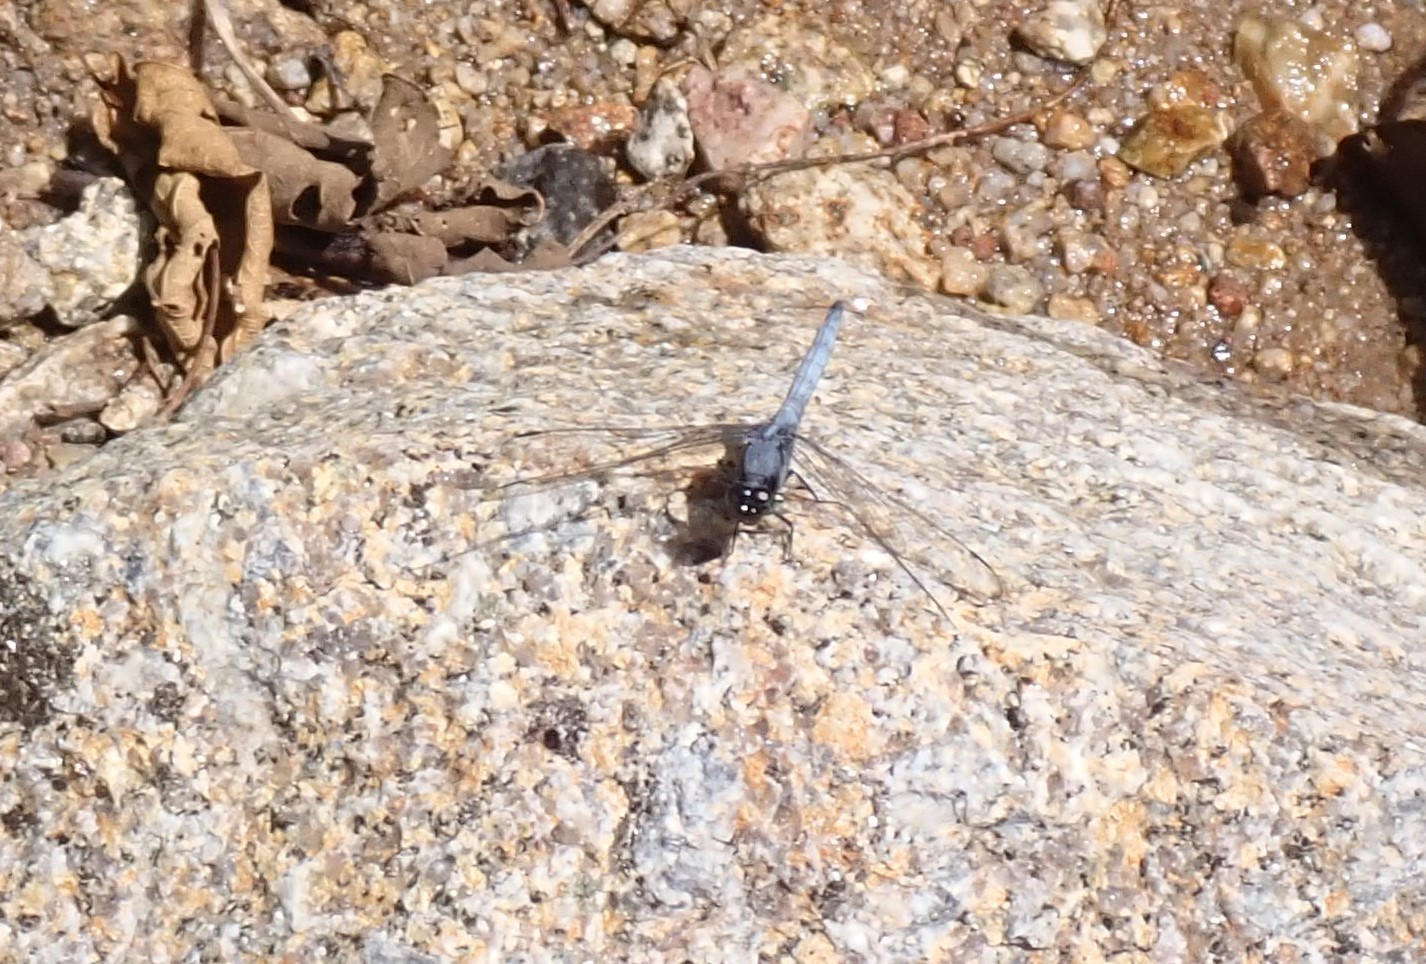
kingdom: Animalia
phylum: Arthropoda
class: Insecta
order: Odonata
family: Libellulidae
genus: Orthetrum
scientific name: Orthetrum glaucum
